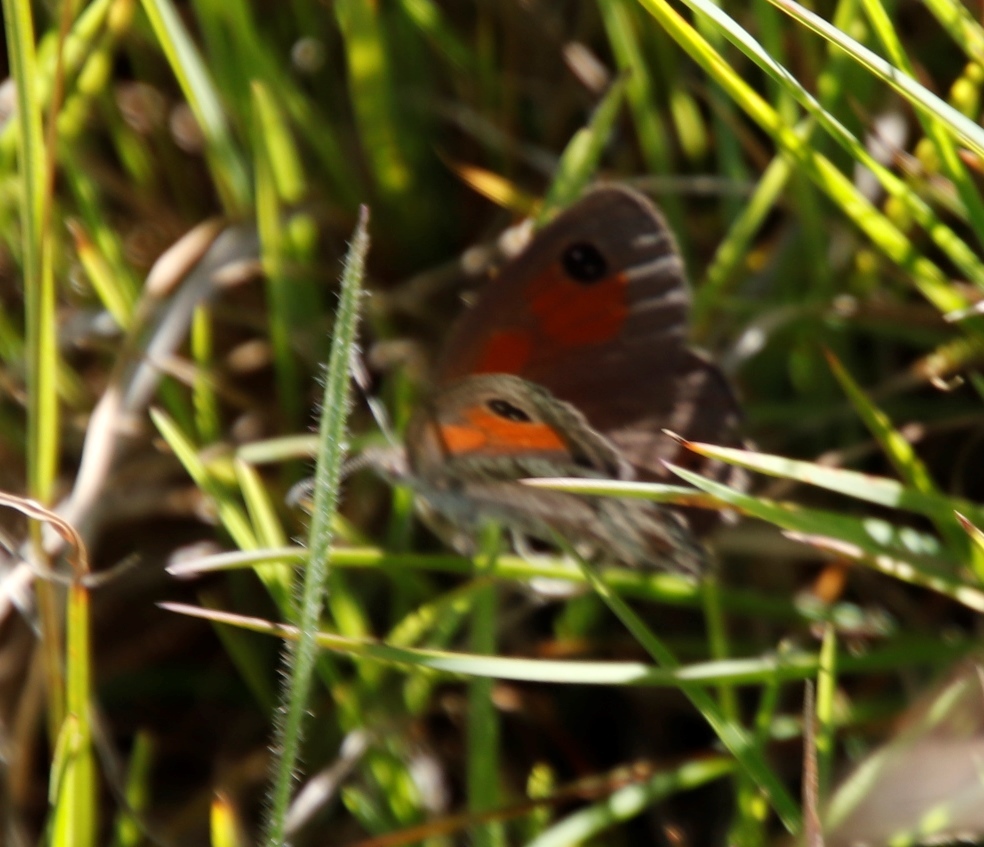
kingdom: Animalia
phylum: Arthropoda
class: Insecta
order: Lepidoptera
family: Nymphalidae
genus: Pseudonympha
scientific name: Pseudonympha magoides
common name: False silver-bottom brown
